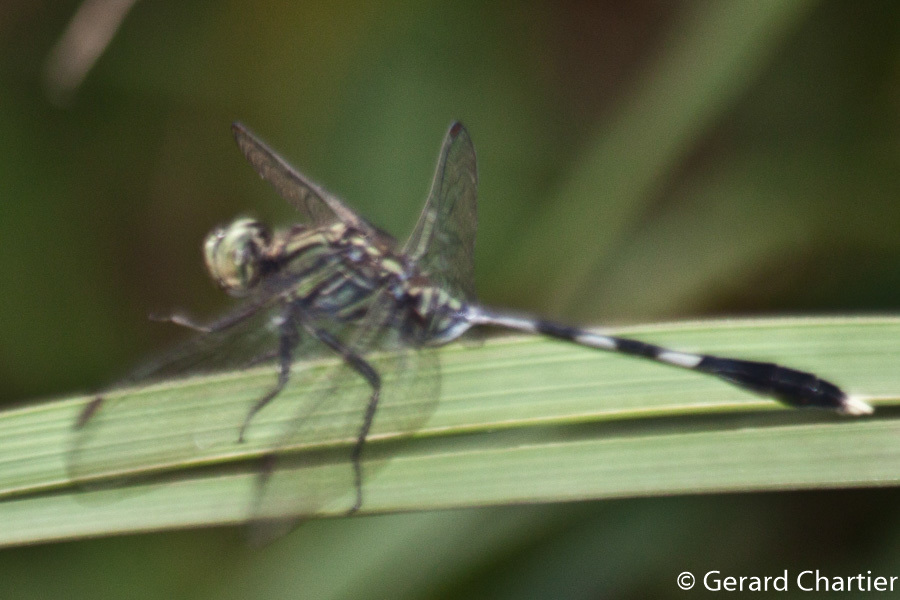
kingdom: Animalia
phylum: Arthropoda
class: Insecta
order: Odonata
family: Libellulidae
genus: Orthetrum
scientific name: Orthetrum sabina
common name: Slender skimmer
